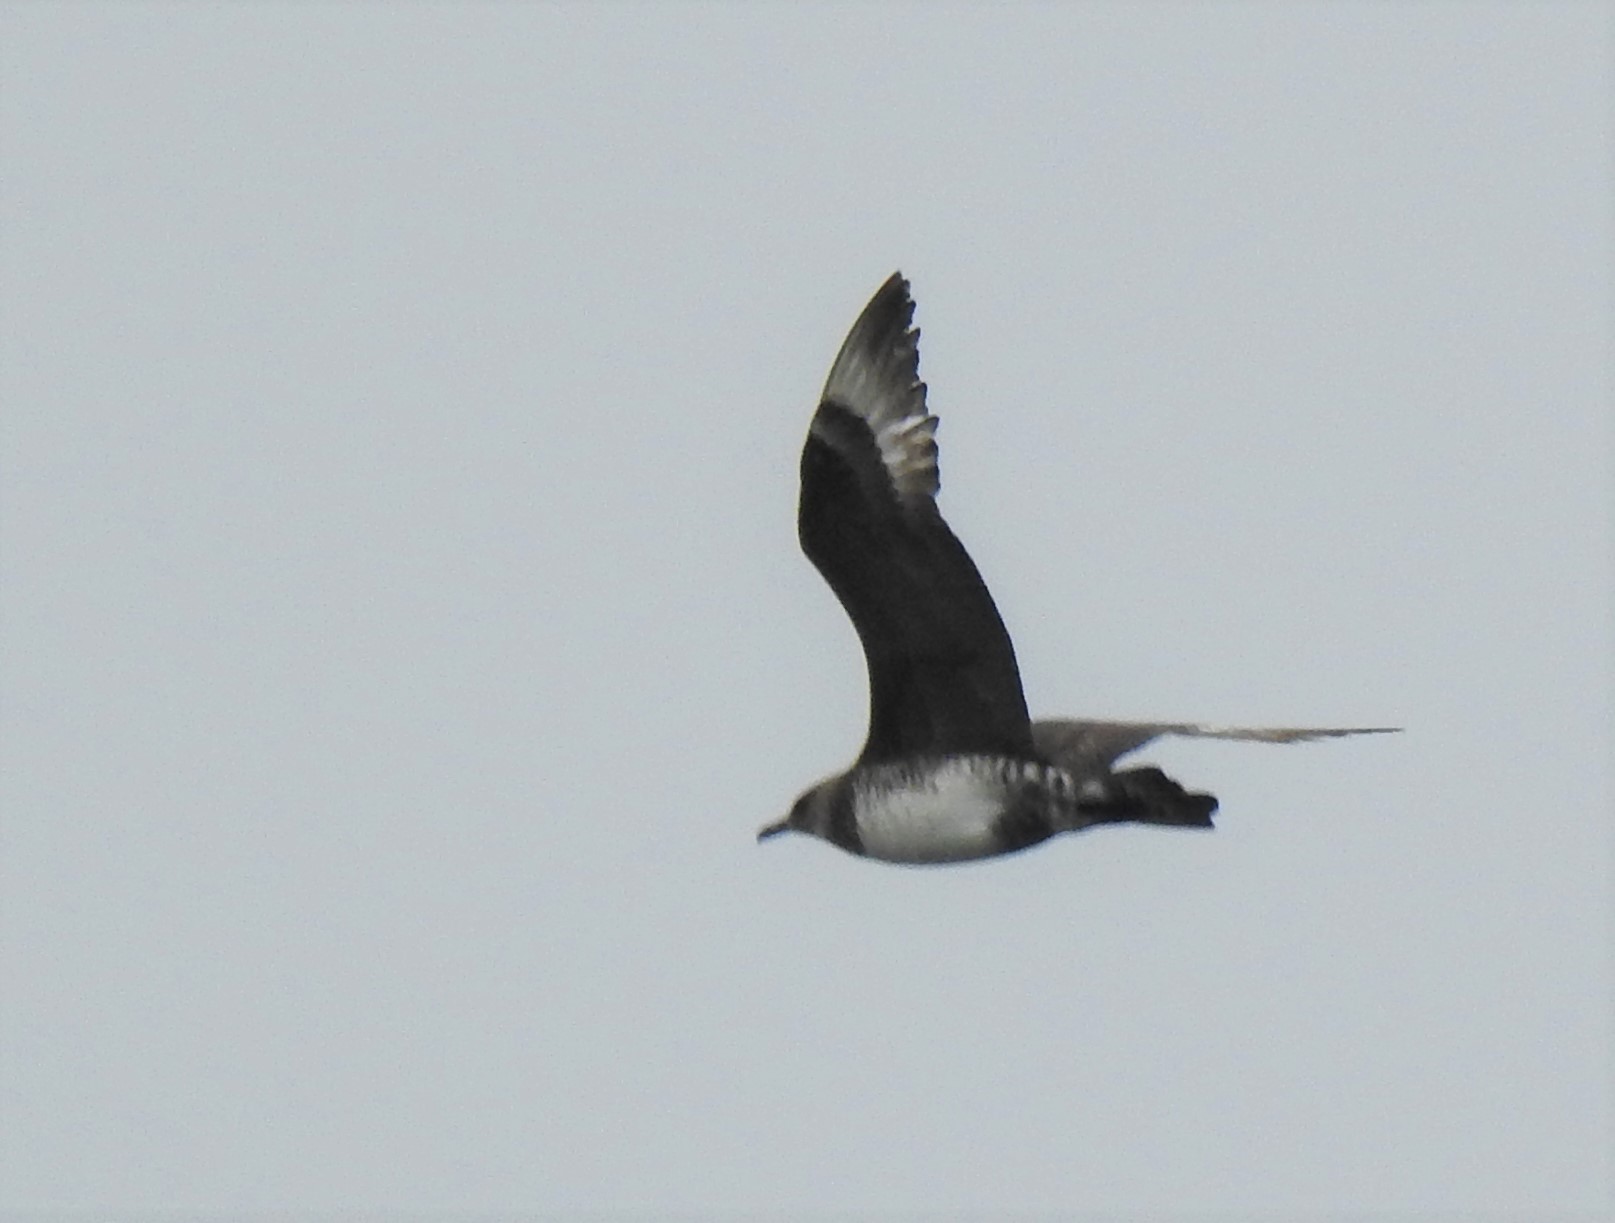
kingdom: Animalia
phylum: Chordata
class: Aves
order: Charadriiformes
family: Stercorariidae
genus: Stercorarius
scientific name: Stercorarius pomarinus
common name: Pomarine jaeger
